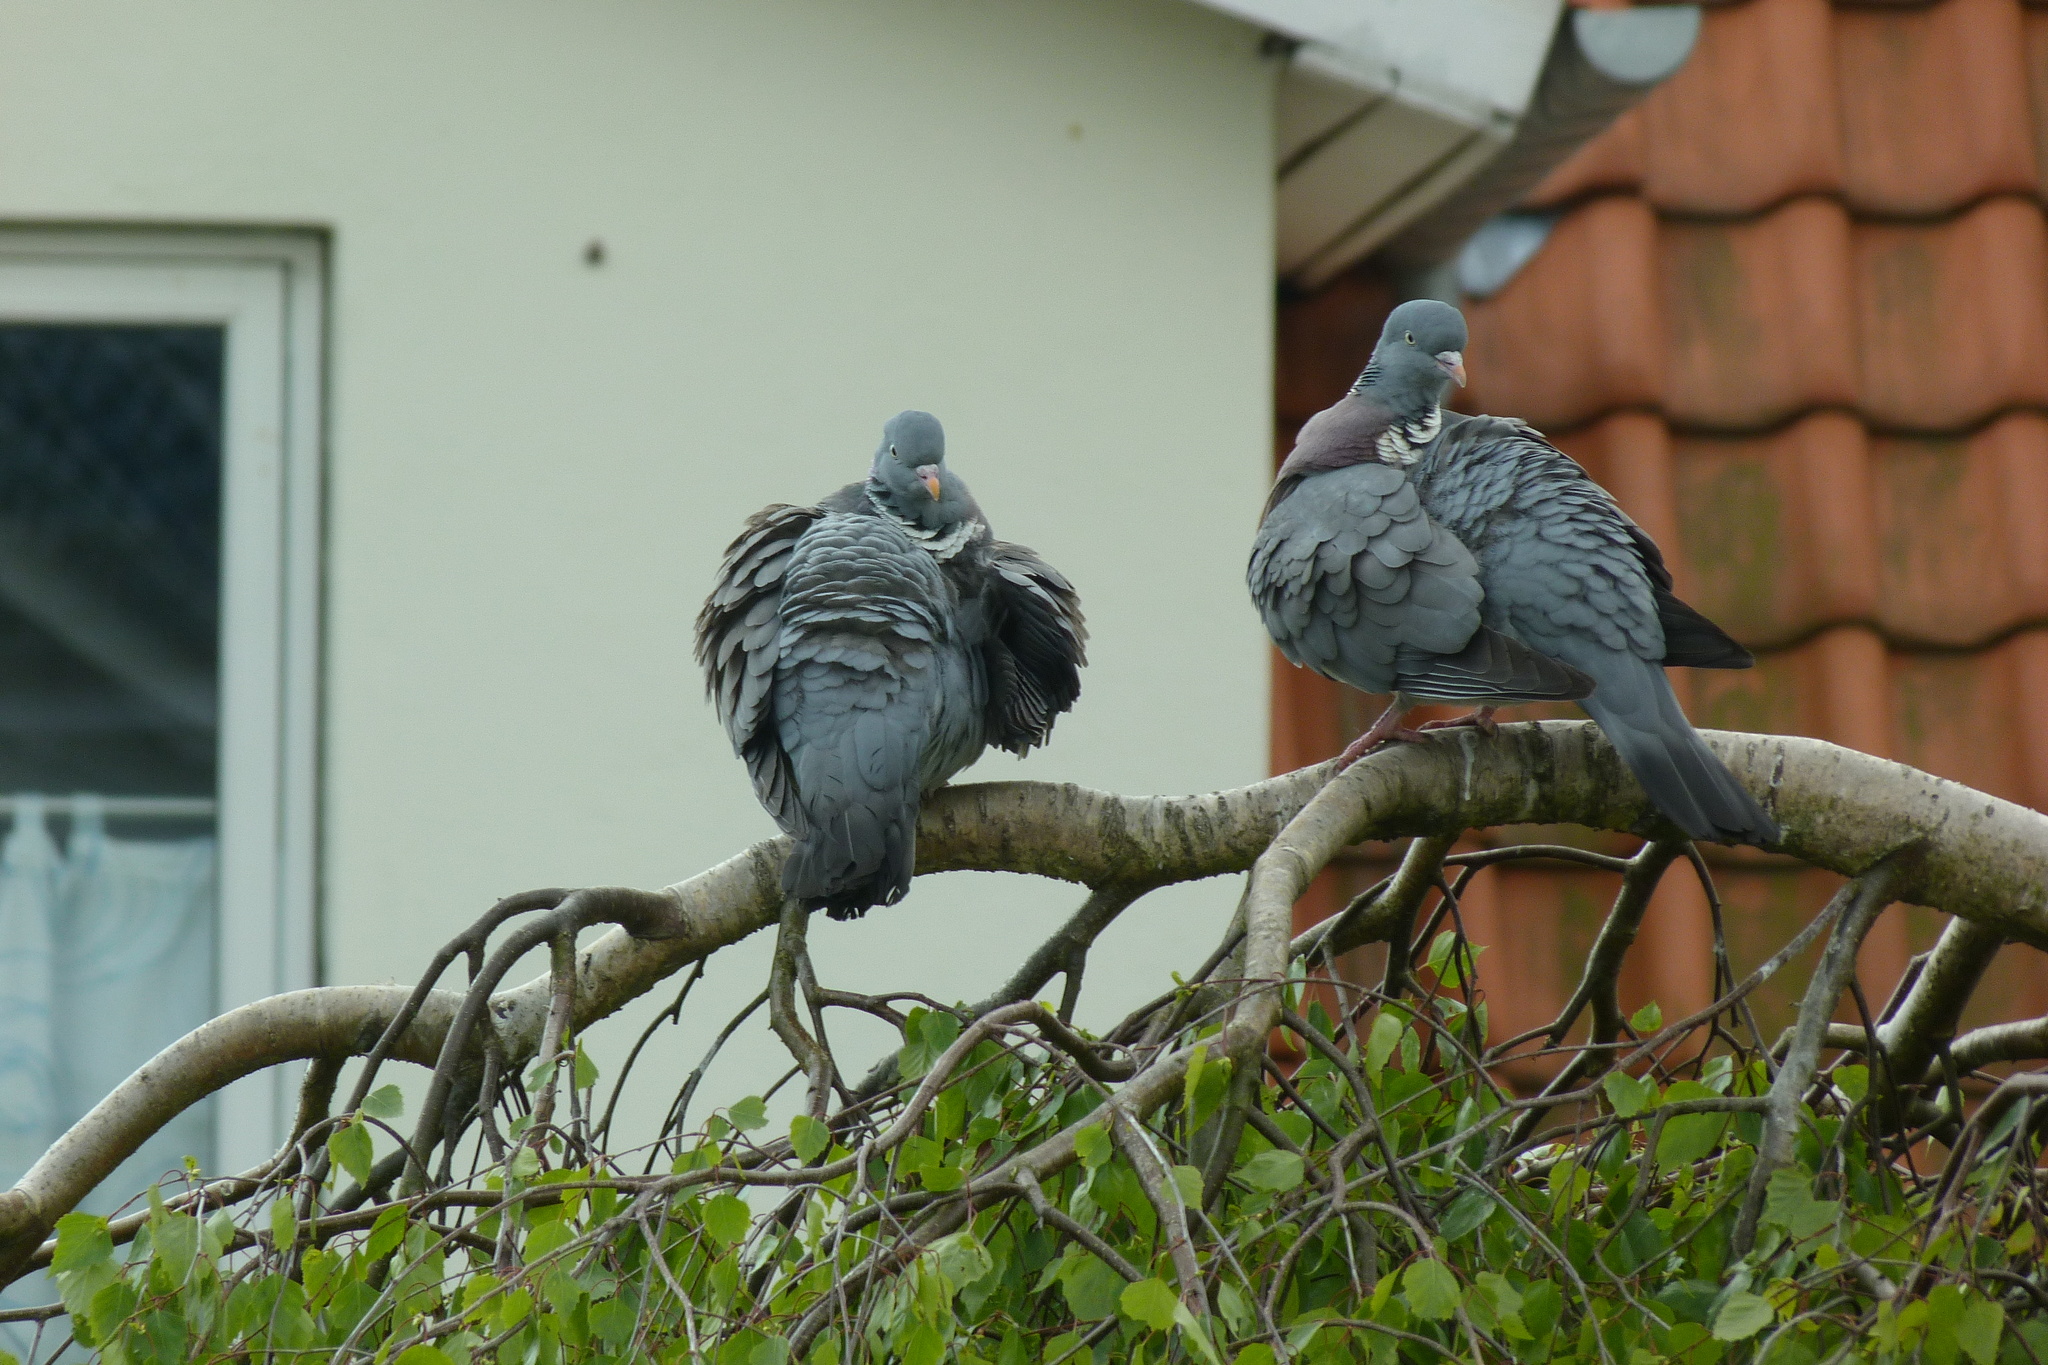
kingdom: Animalia
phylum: Chordata
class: Aves
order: Columbiformes
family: Columbidae
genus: Columba
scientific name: Columba palumbus
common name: Common wood pigeon
